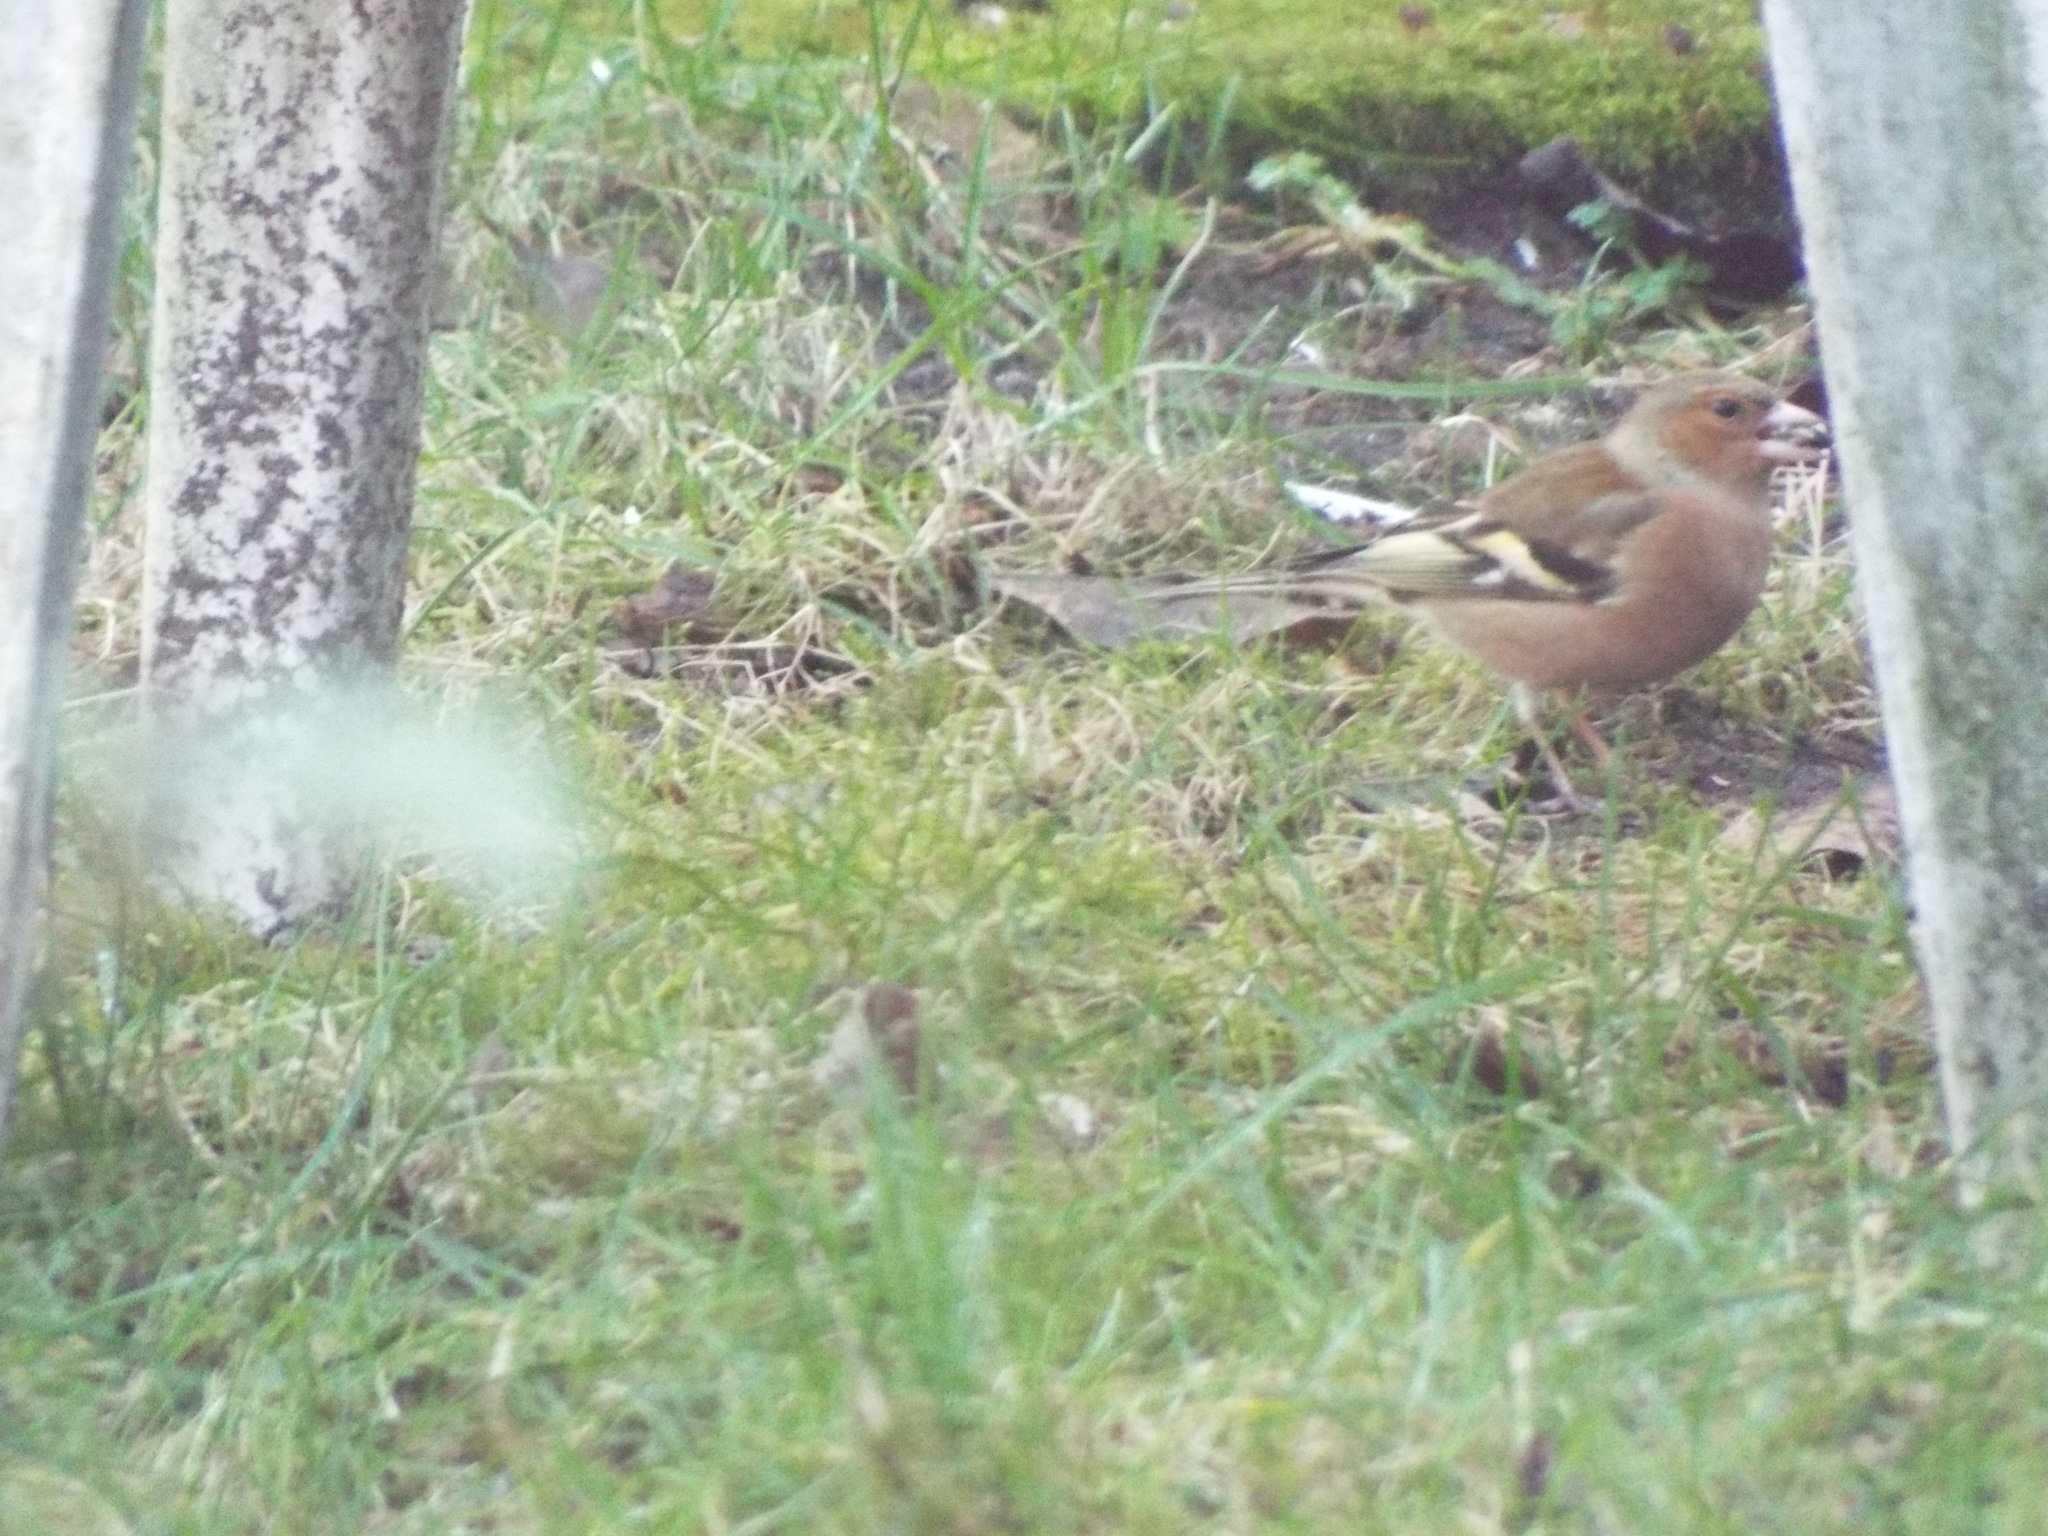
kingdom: Animalia
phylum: Chordata
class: Aves
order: Passeriformes
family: Fringillidae
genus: Fringilla
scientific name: Fringilla coelebs
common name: Common chaffinch
